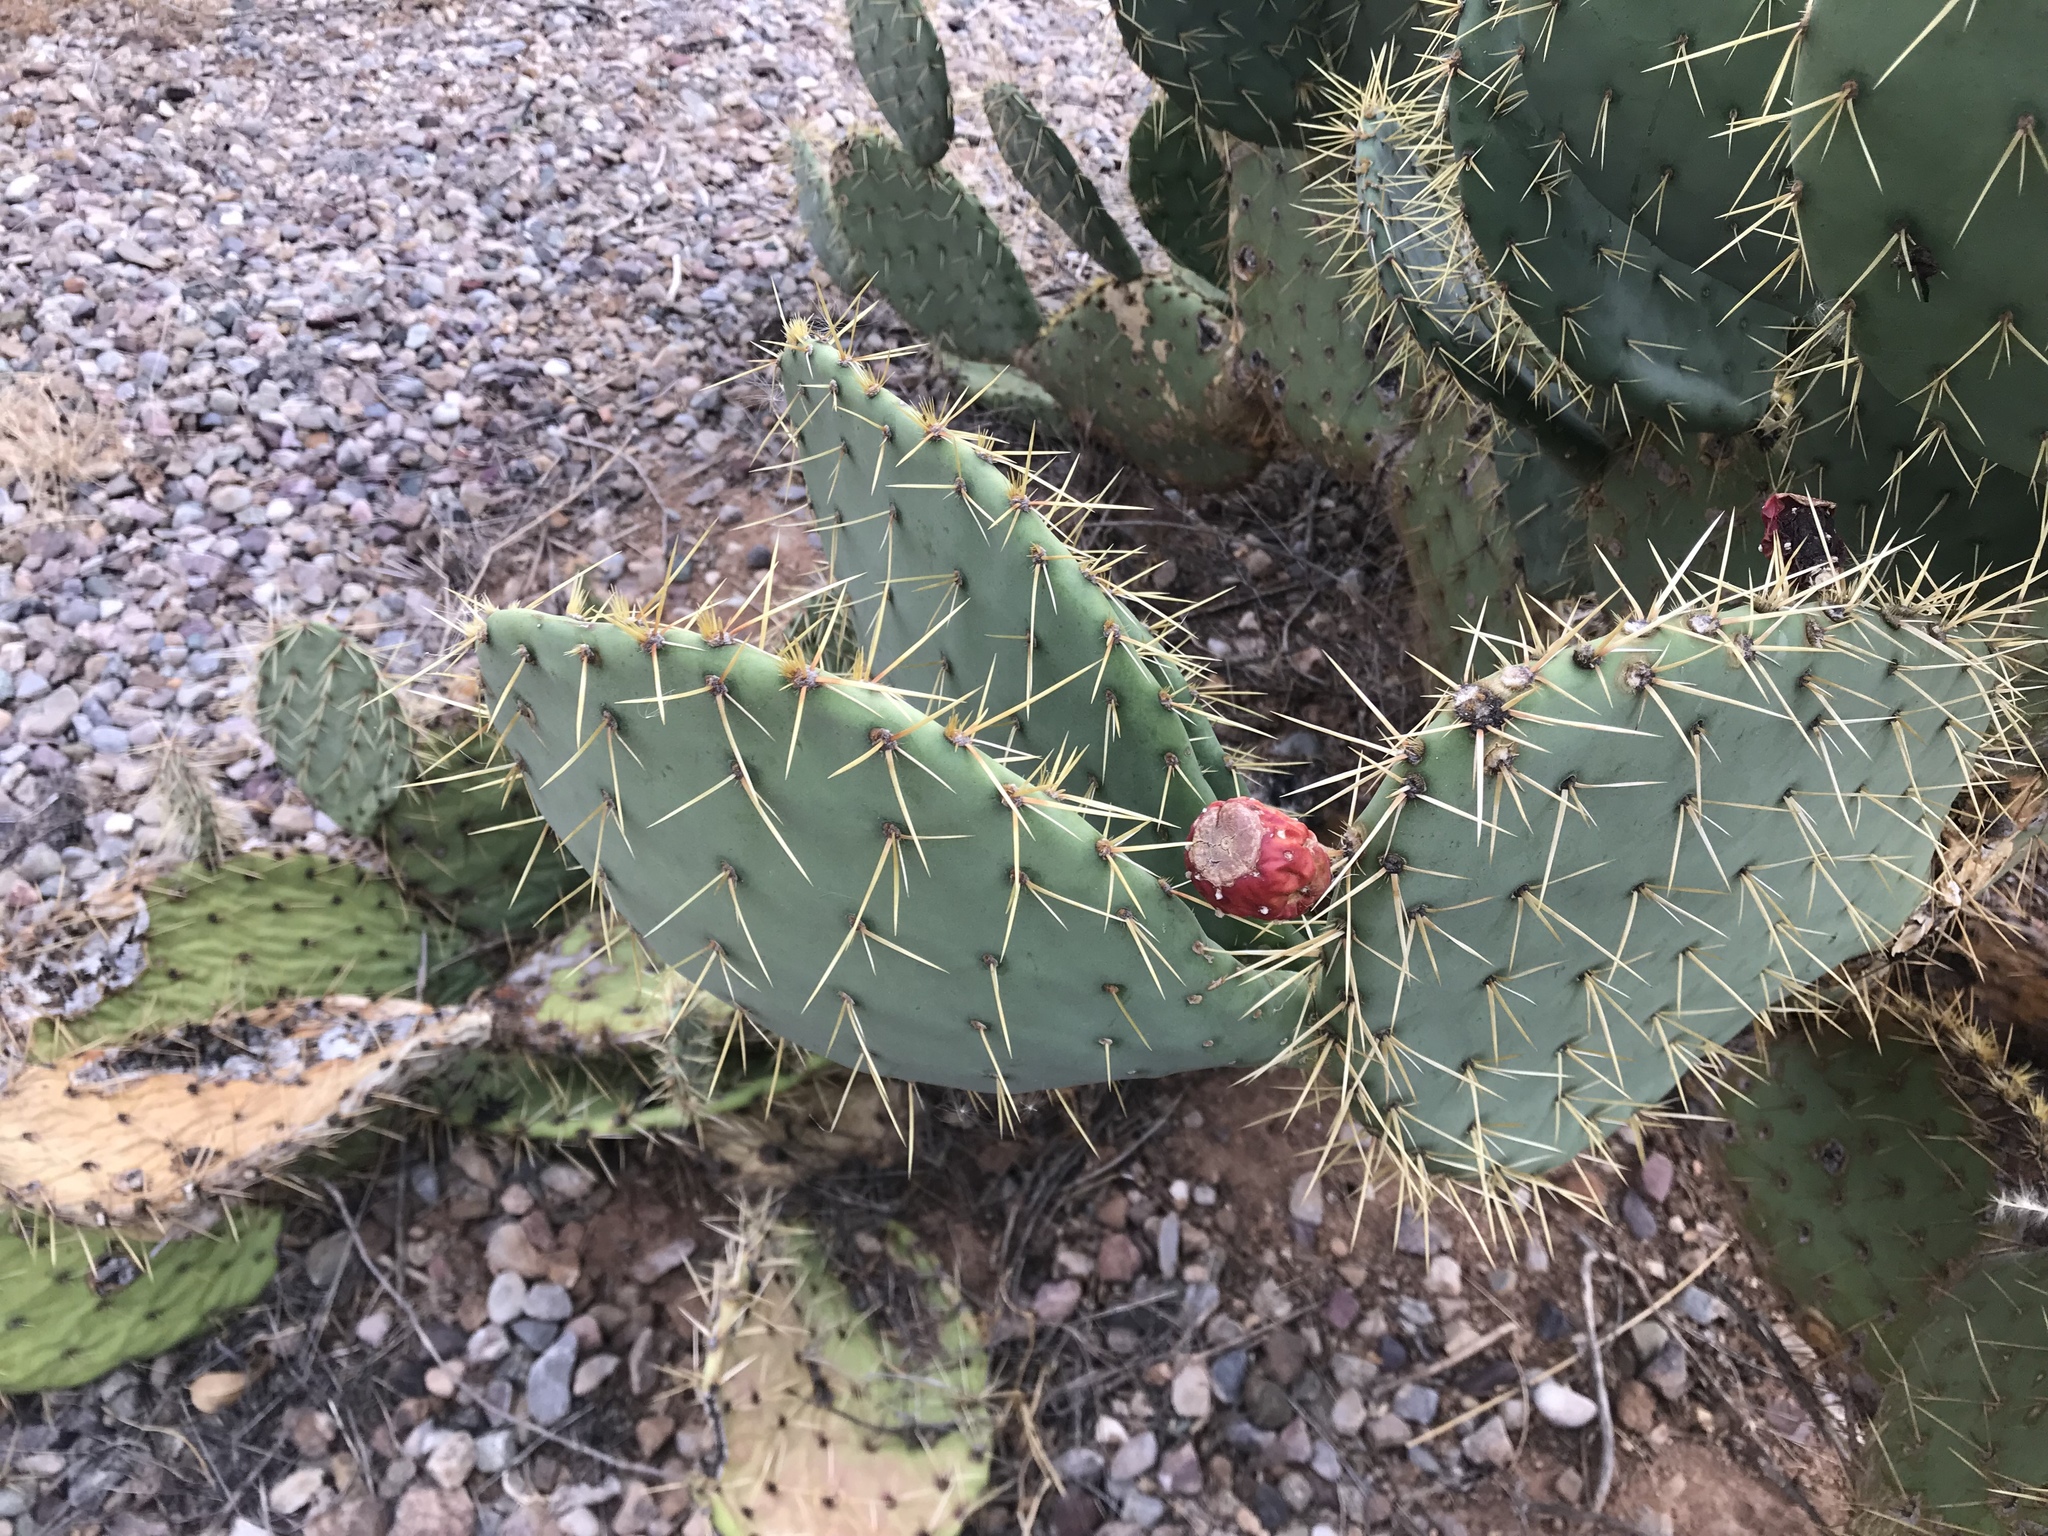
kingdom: Plantae
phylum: Tracheophyta
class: Magnoliopsida
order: Caryophyllales
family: Cactaceae
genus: Opuntia
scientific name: Opuntia engelmannii
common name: Cactus-apple
